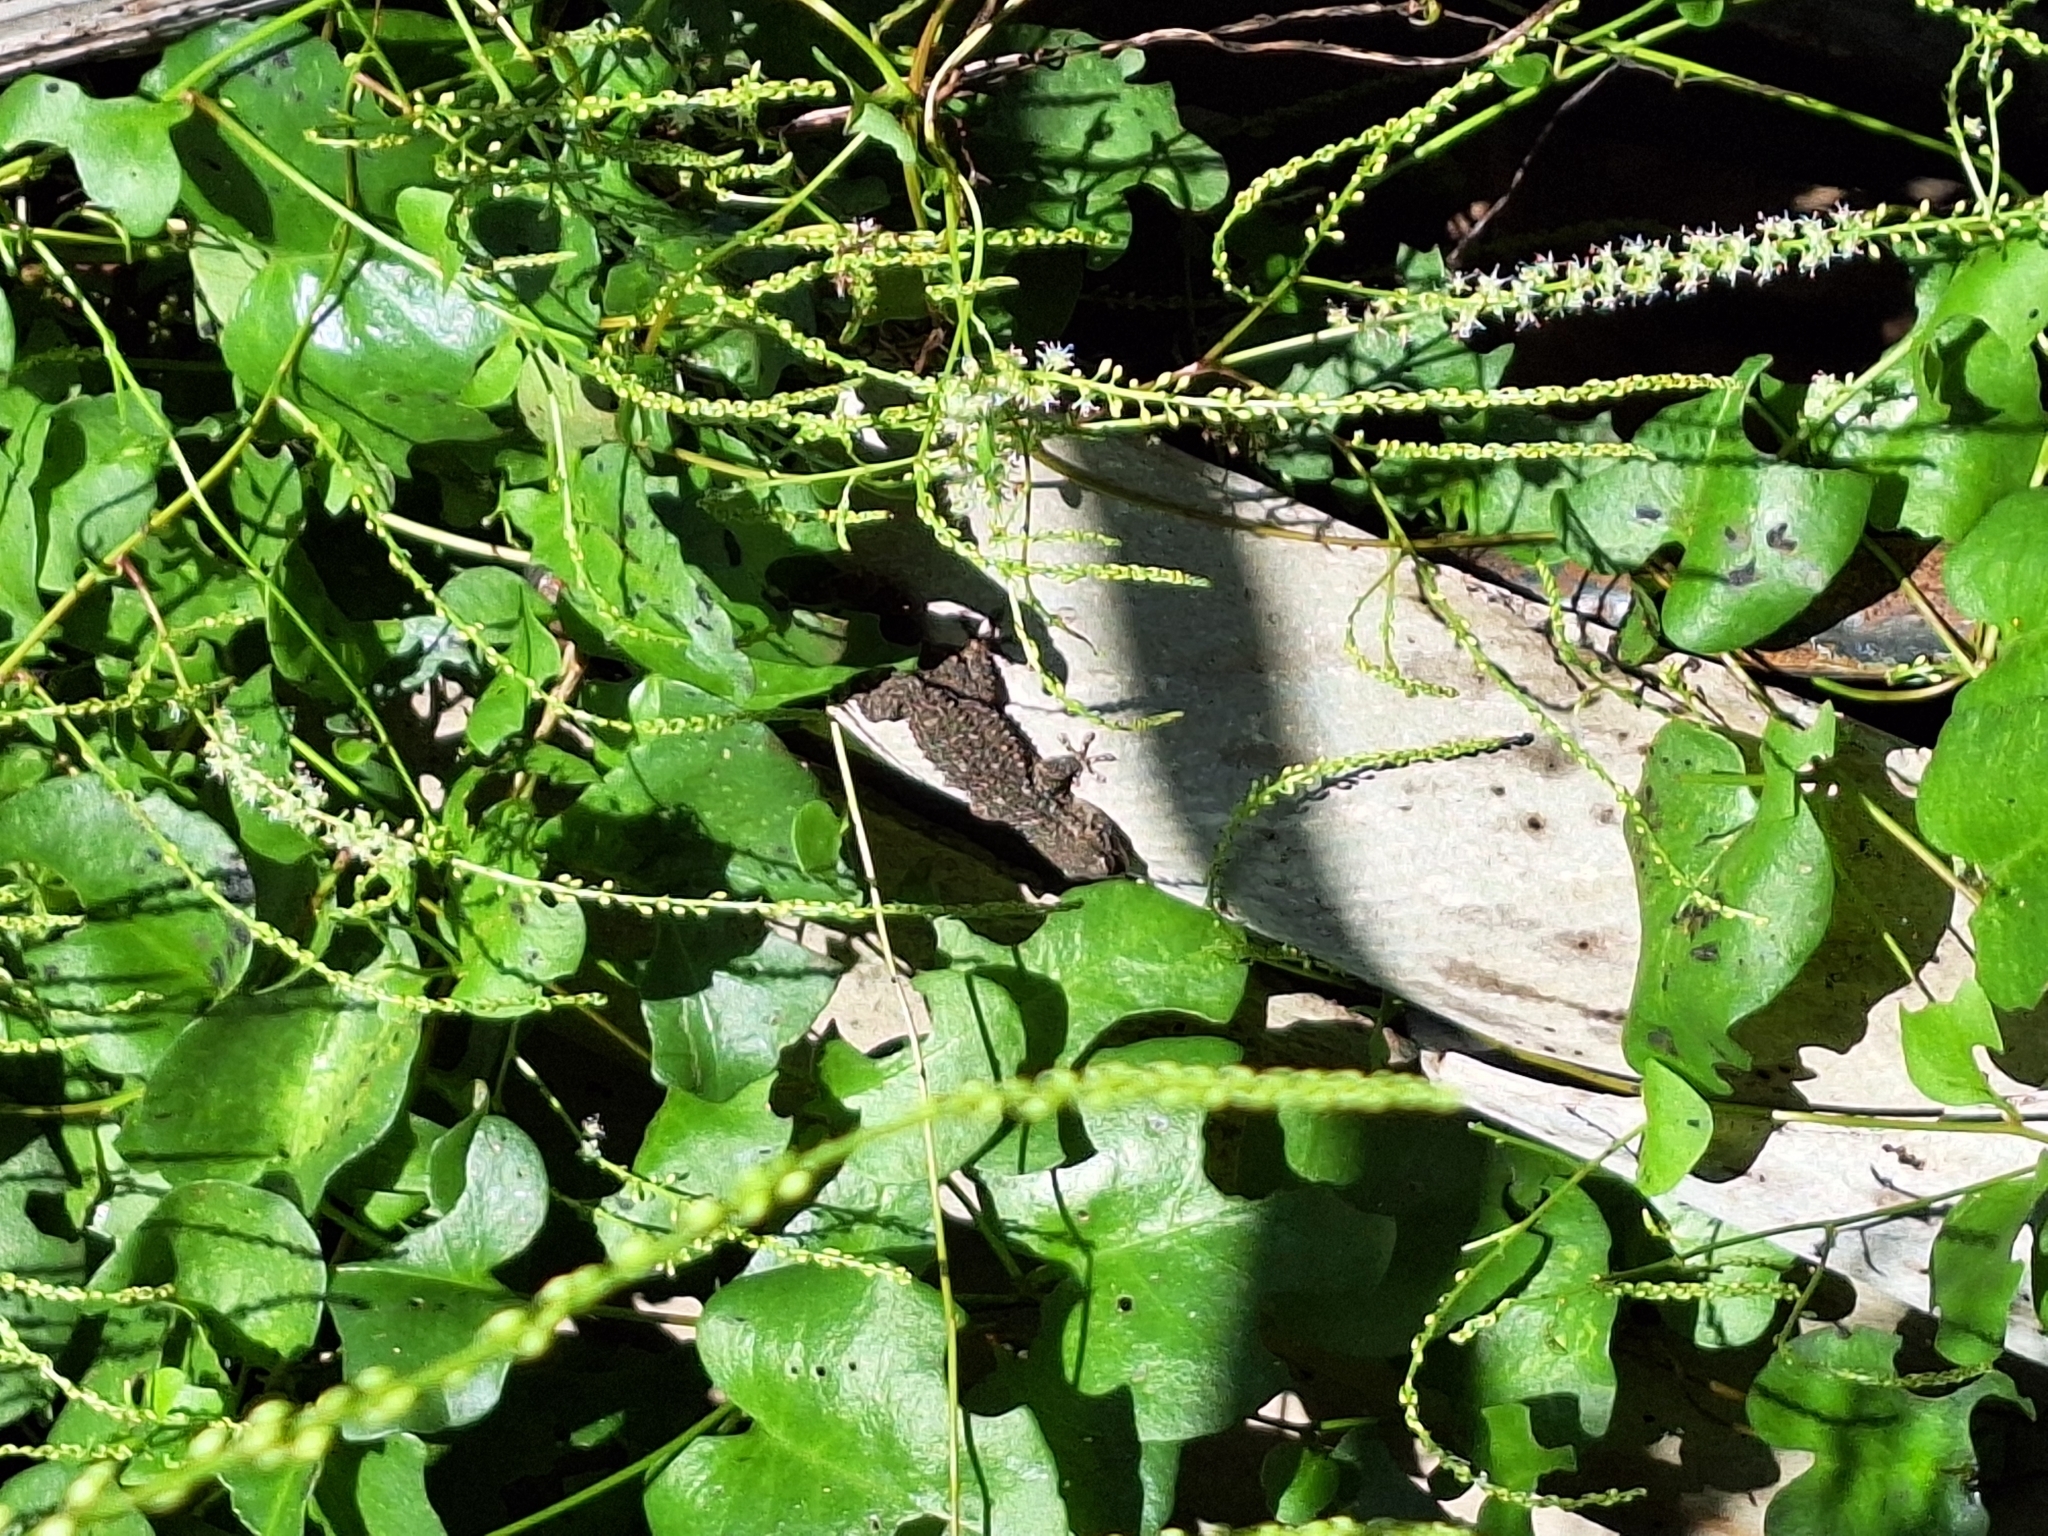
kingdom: Animalia
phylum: Chordata
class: Squamata
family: Phyllodactylidae
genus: Tarentola
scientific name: Tarentola mauritanica
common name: Moorish gecko
